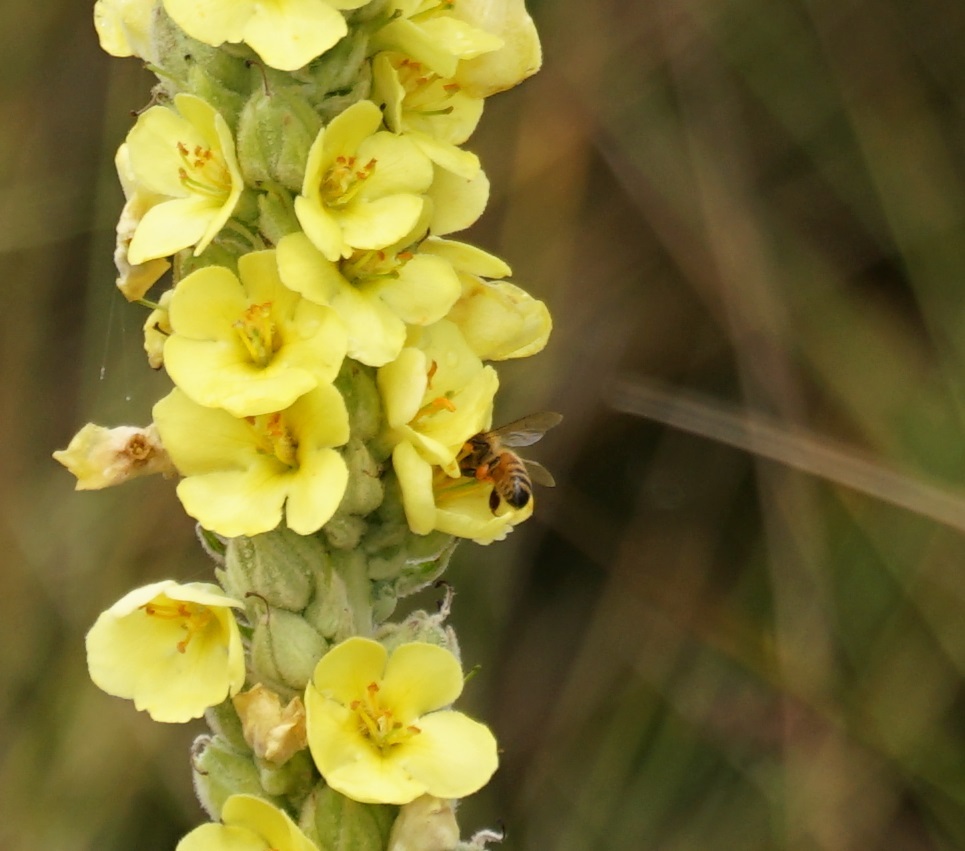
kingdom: Animalia
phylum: Arthropoda
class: Insecta
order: Hymenoptera
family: Apidae
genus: Apis
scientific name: Apis mellifera
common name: Honey bee
